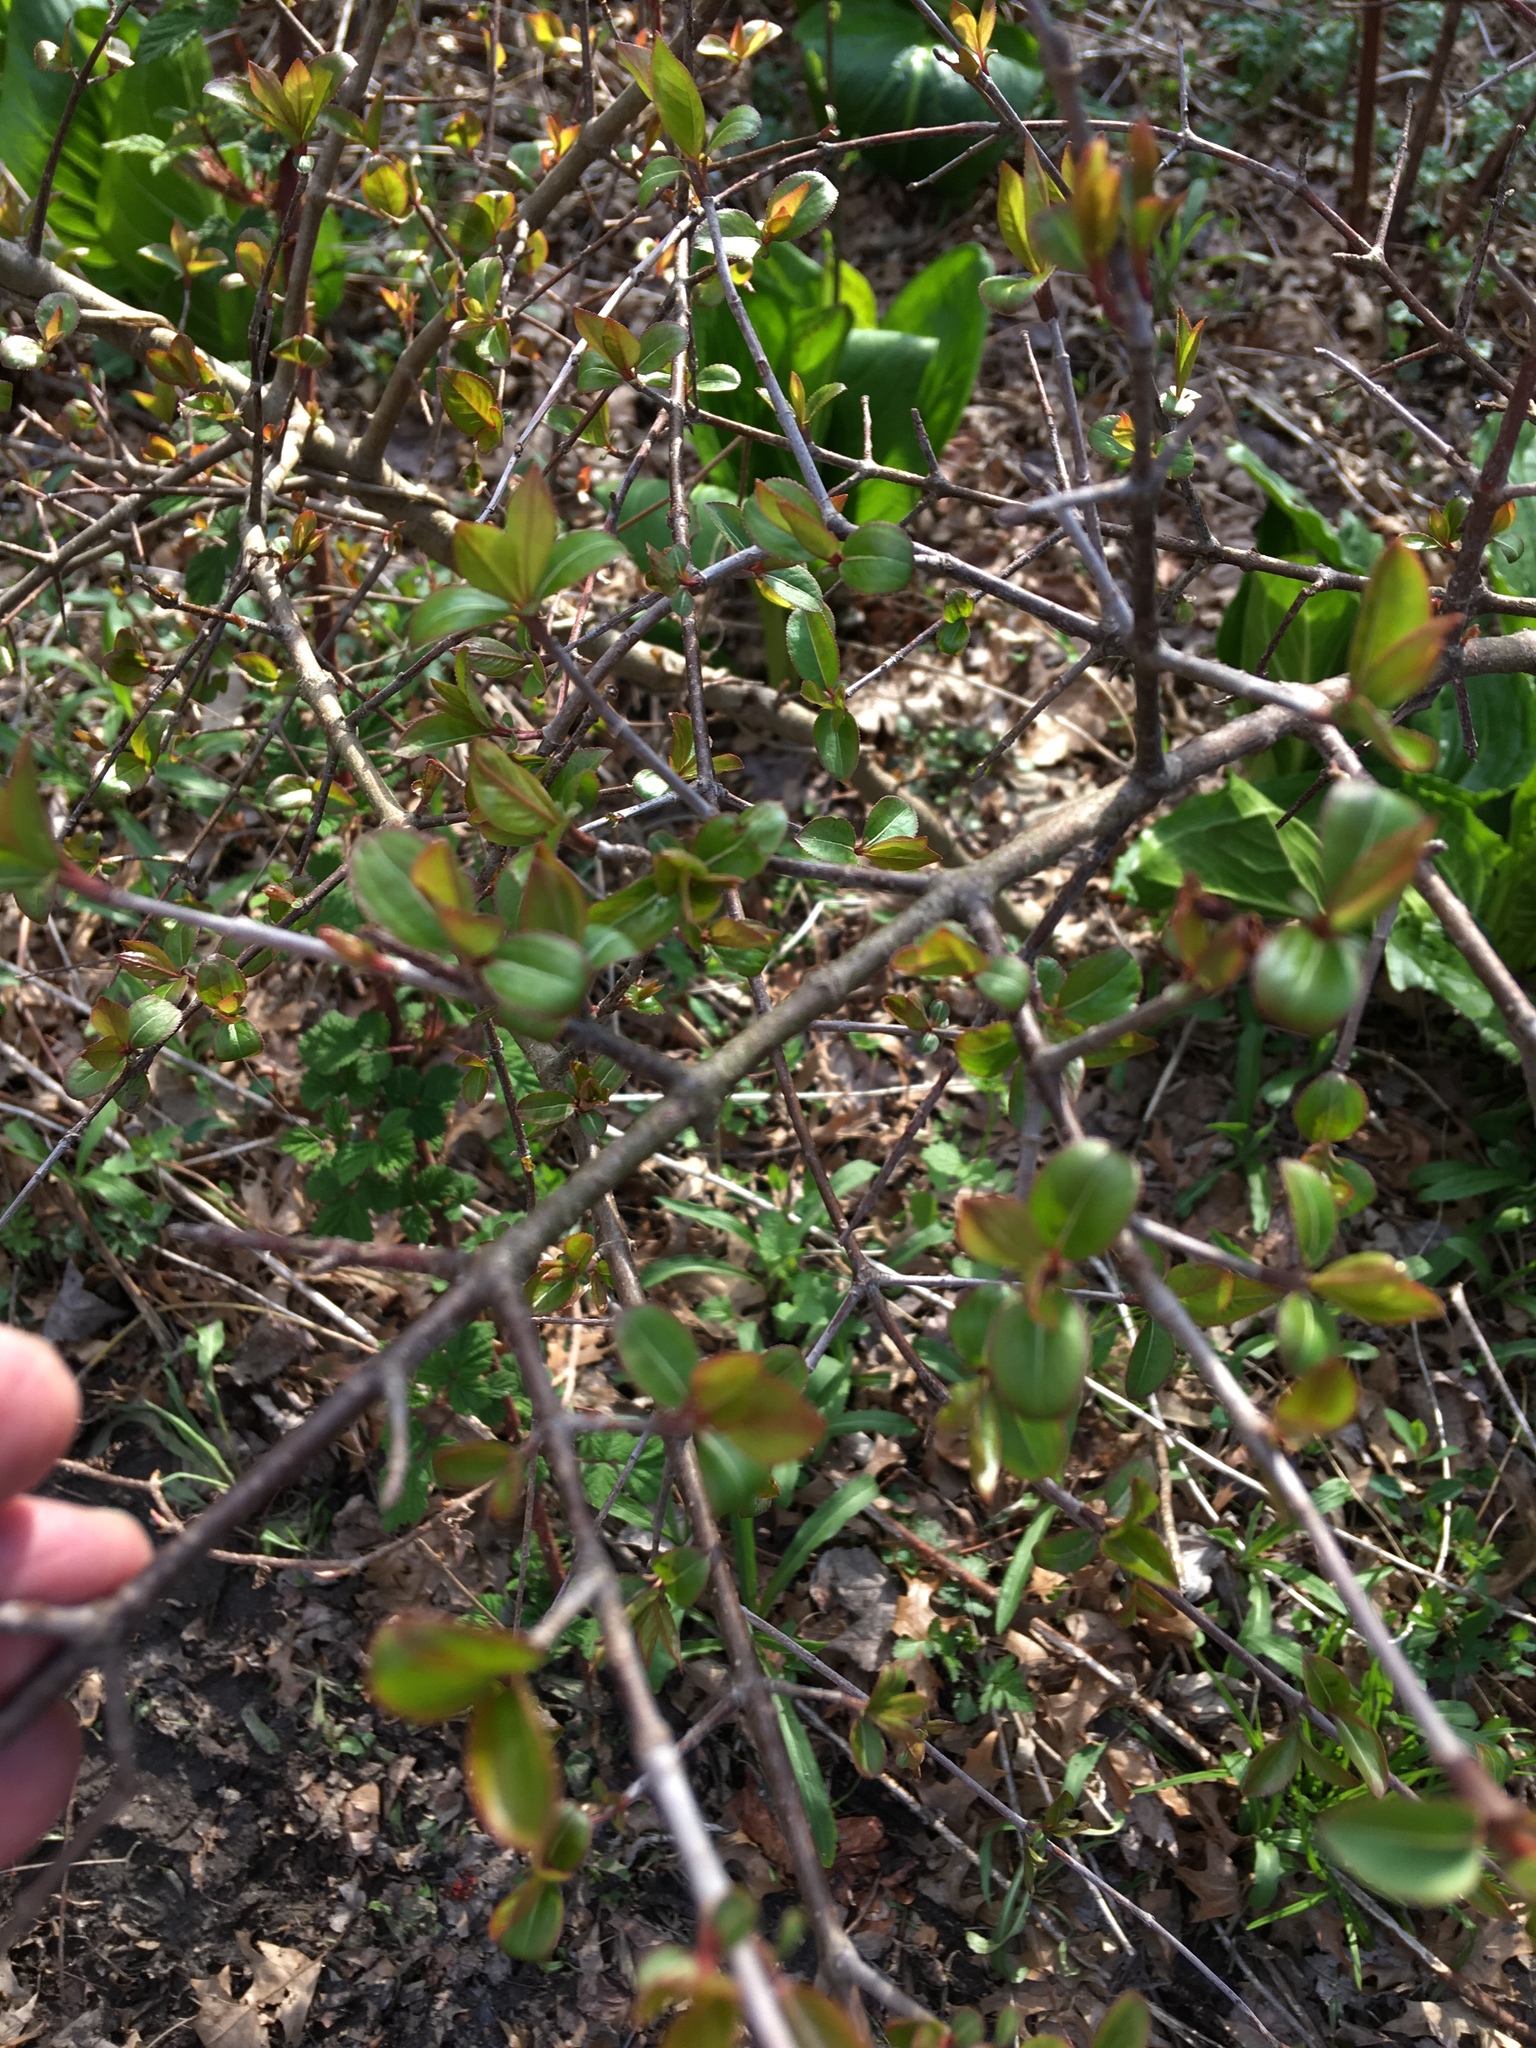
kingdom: Plantae
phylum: Tracheophyta
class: Magnoliopsida
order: Dipsacales
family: Viburnaceae
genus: Viburnum
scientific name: Viburnum prunifolium
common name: Black haw
